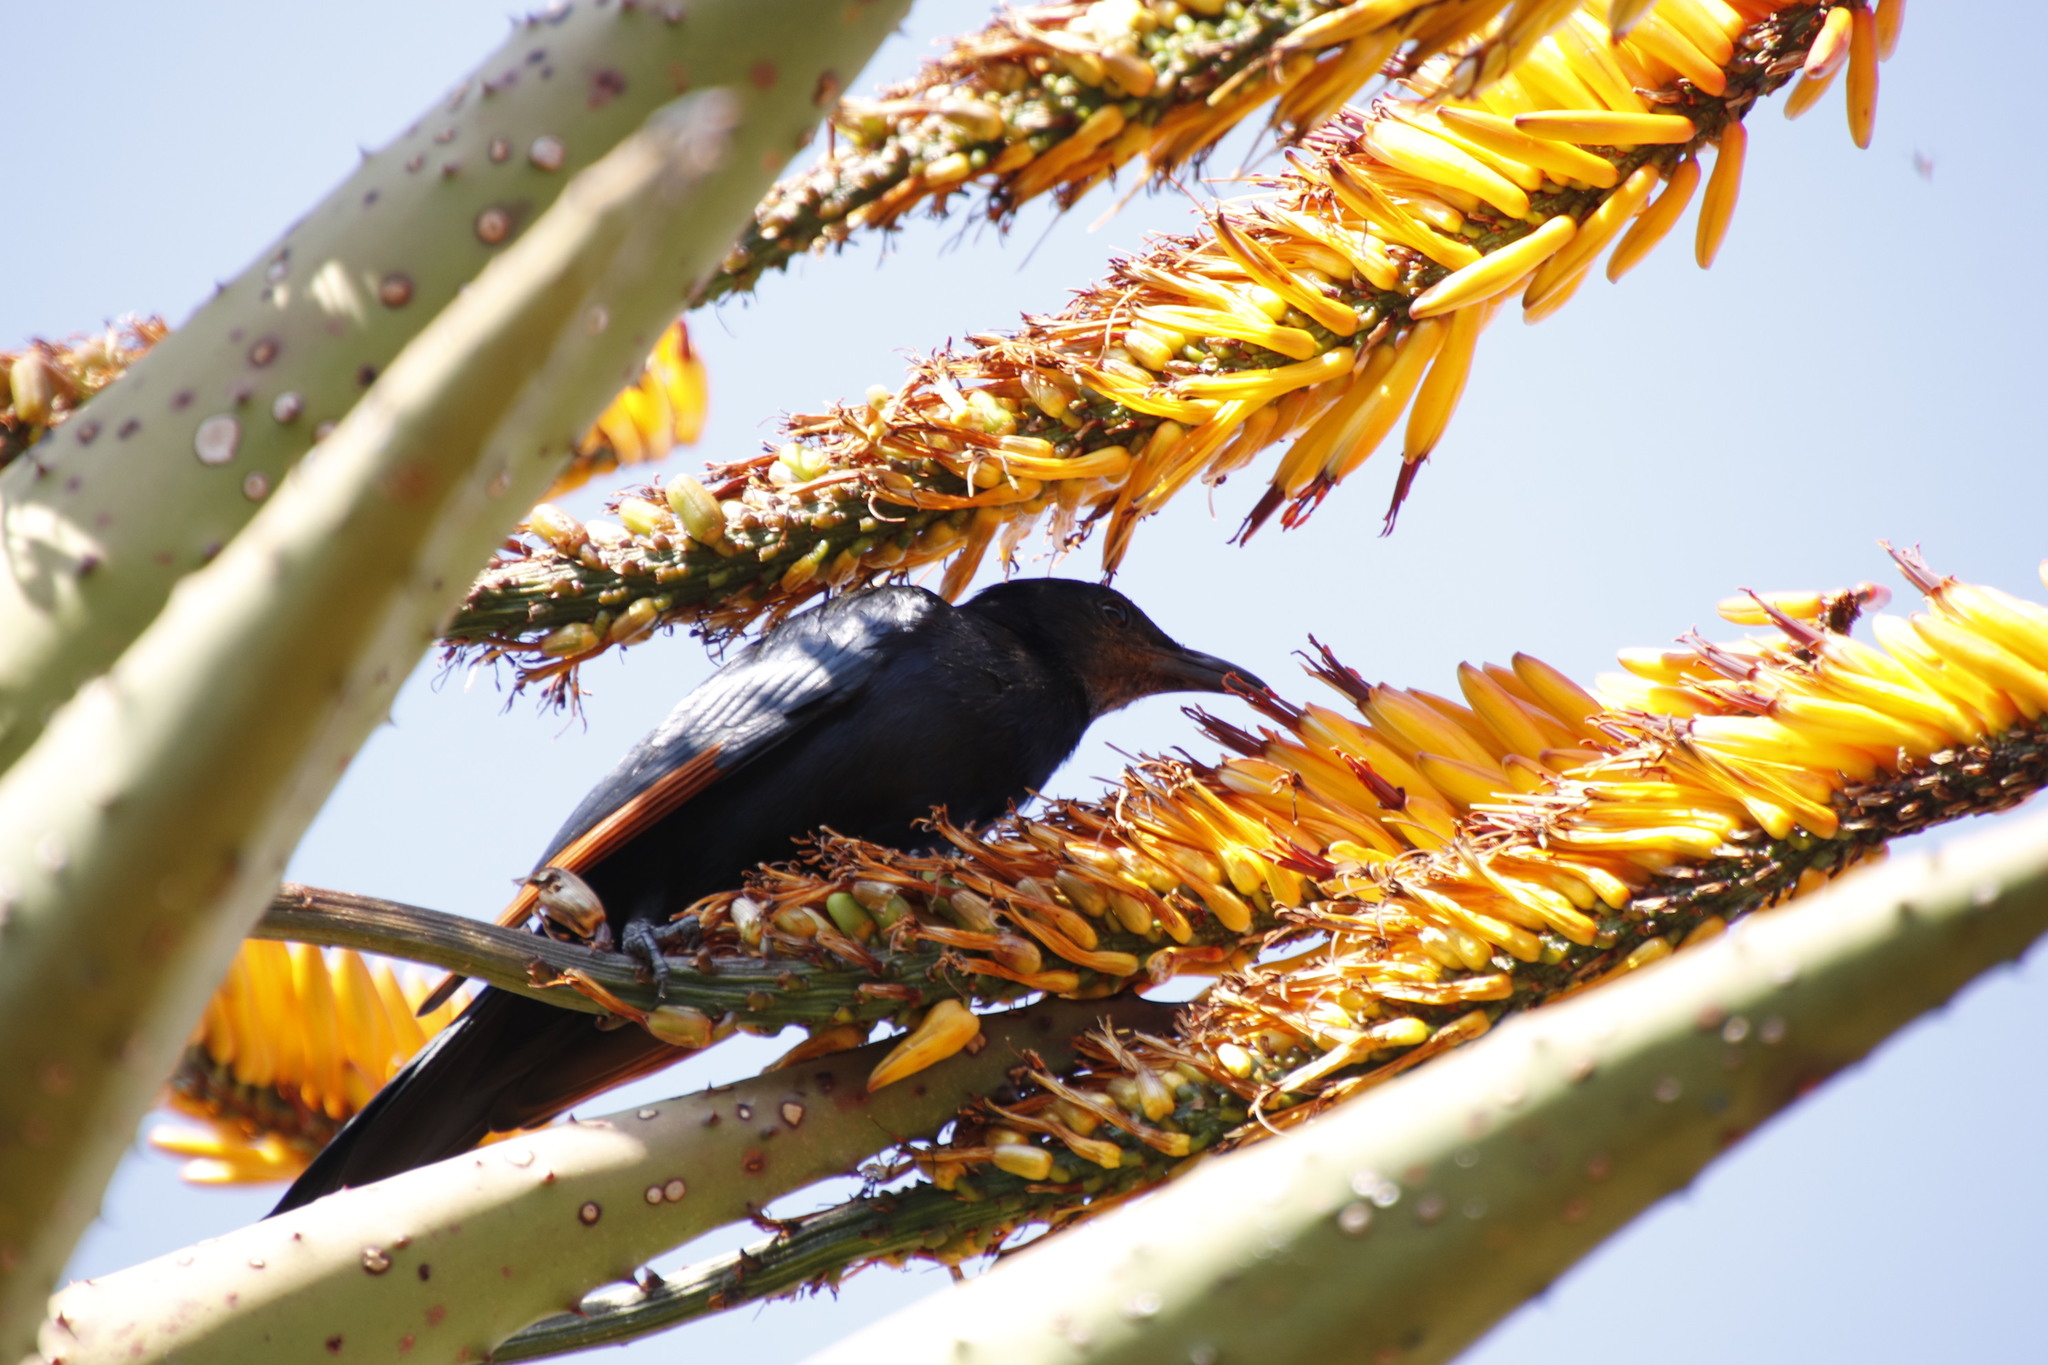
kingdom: Animalia
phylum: Chordata
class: Aves
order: Passeriformes
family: Sturnidae
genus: Onychognathus
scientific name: Onychognathus morio
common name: Red-winged starling
